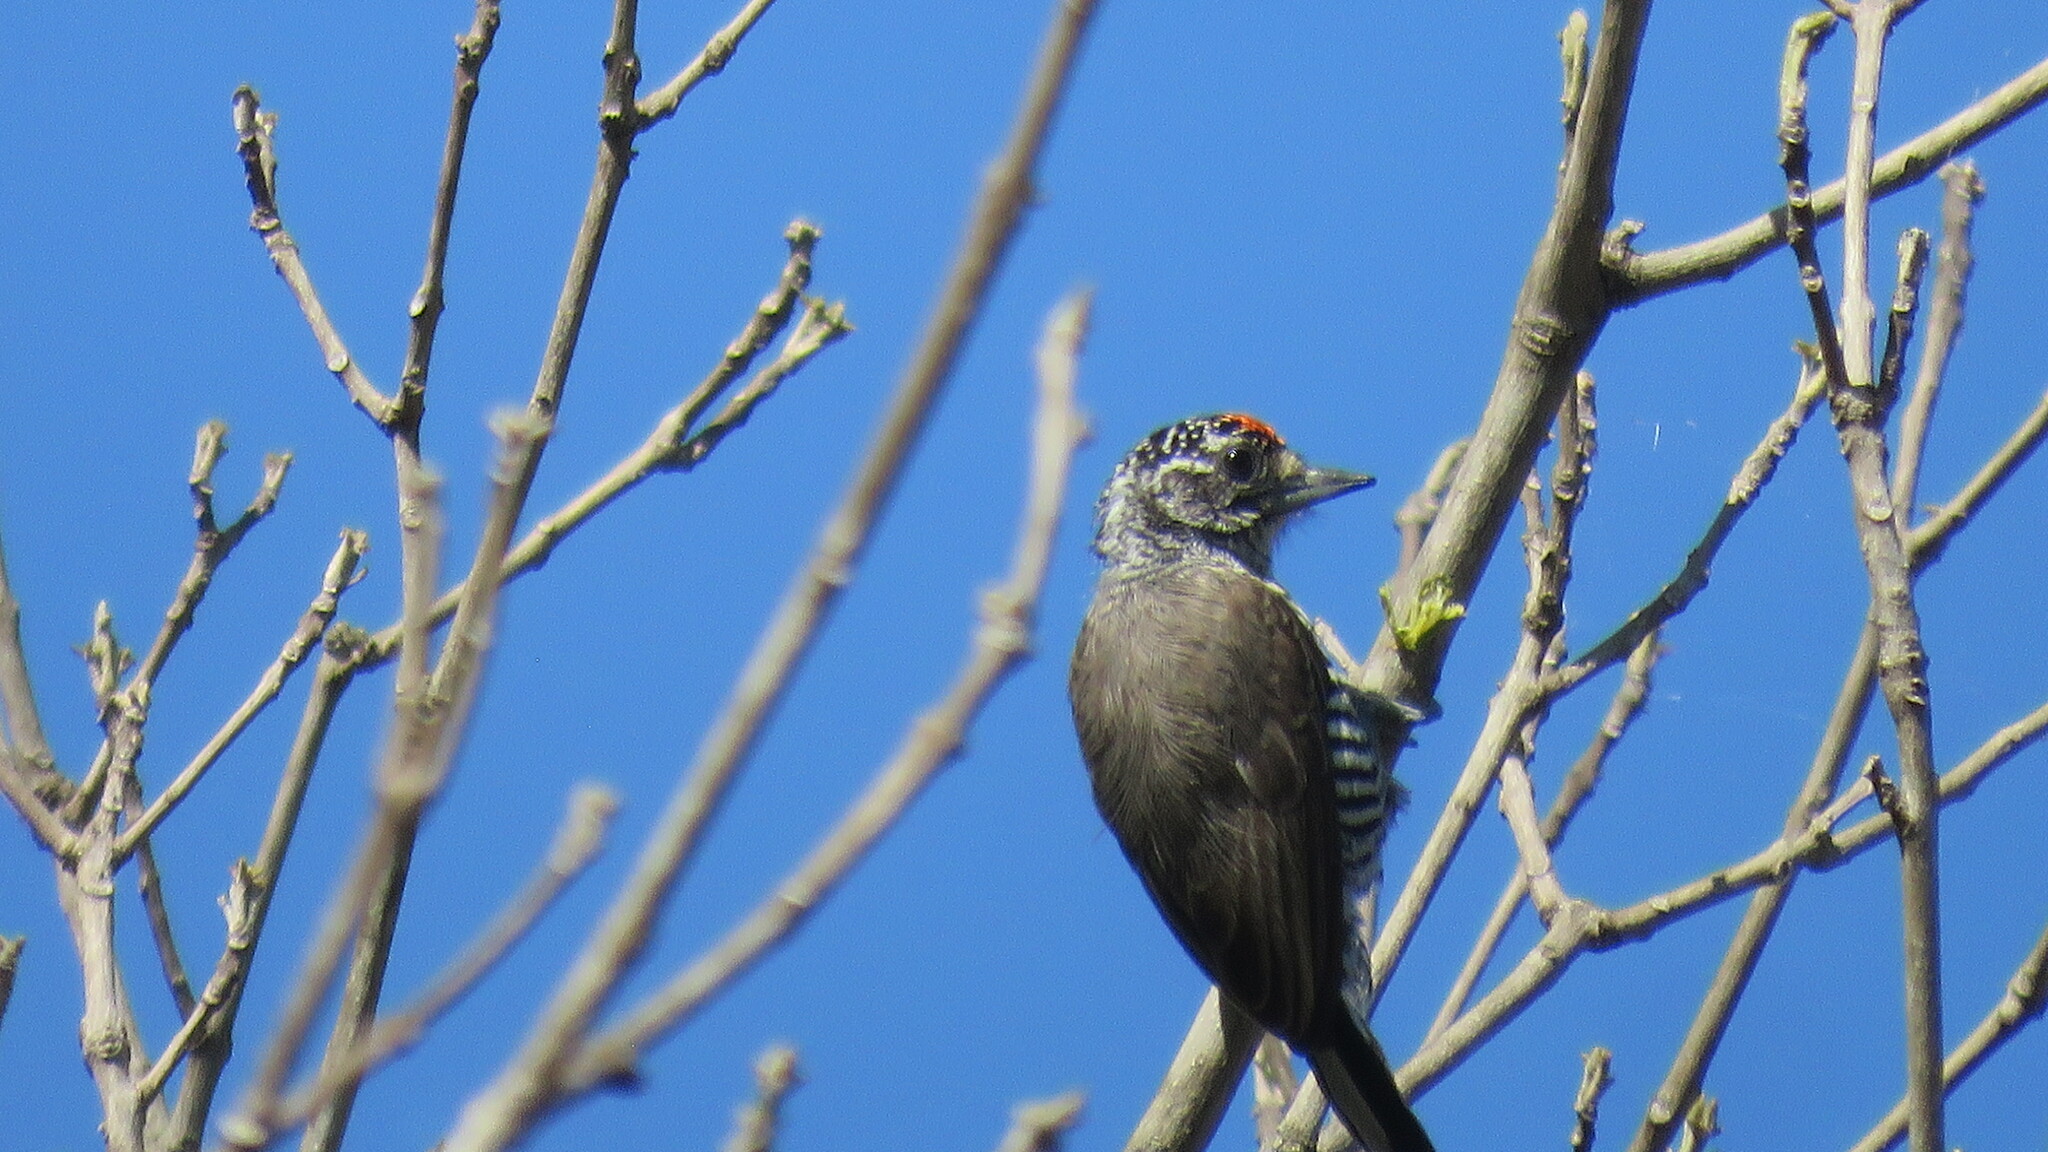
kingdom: Animalia
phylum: Chordata
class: Aves
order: Piciformes
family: Picidae
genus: Picumnus
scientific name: Picumnus cirratus
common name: White-barred piculet
